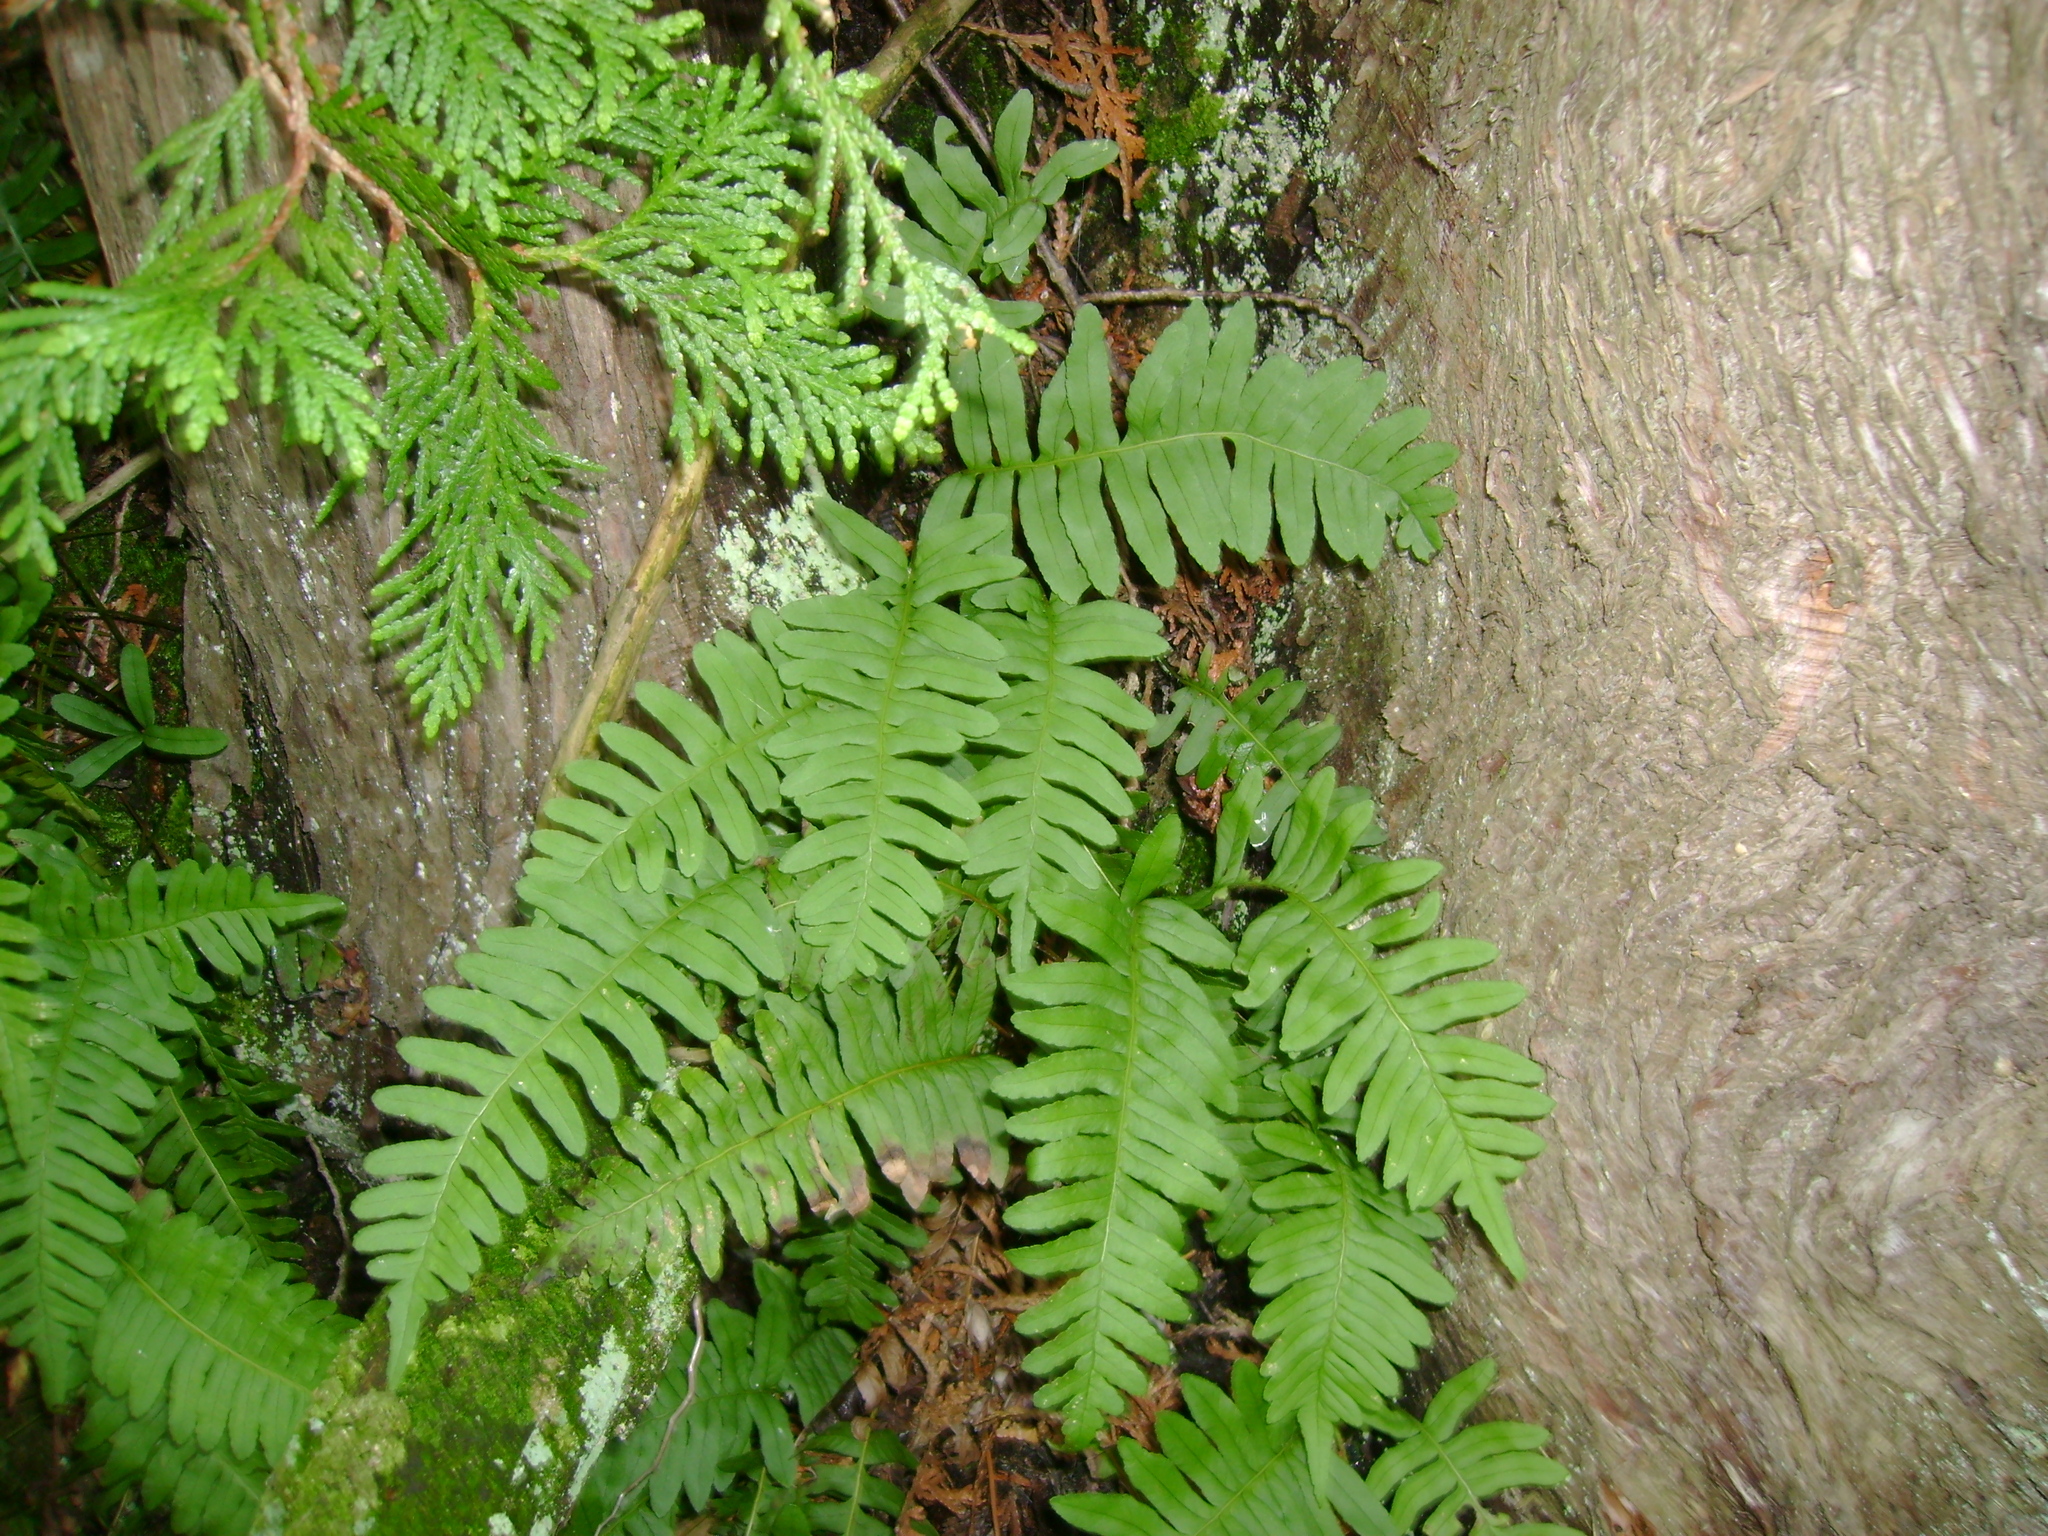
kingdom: Plantae
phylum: Tracheophyta
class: Polypodiopsida
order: Polypodiales
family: Polypodiaceae
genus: Polypodium
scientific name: Polypodium virginianum
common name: American wall fern
